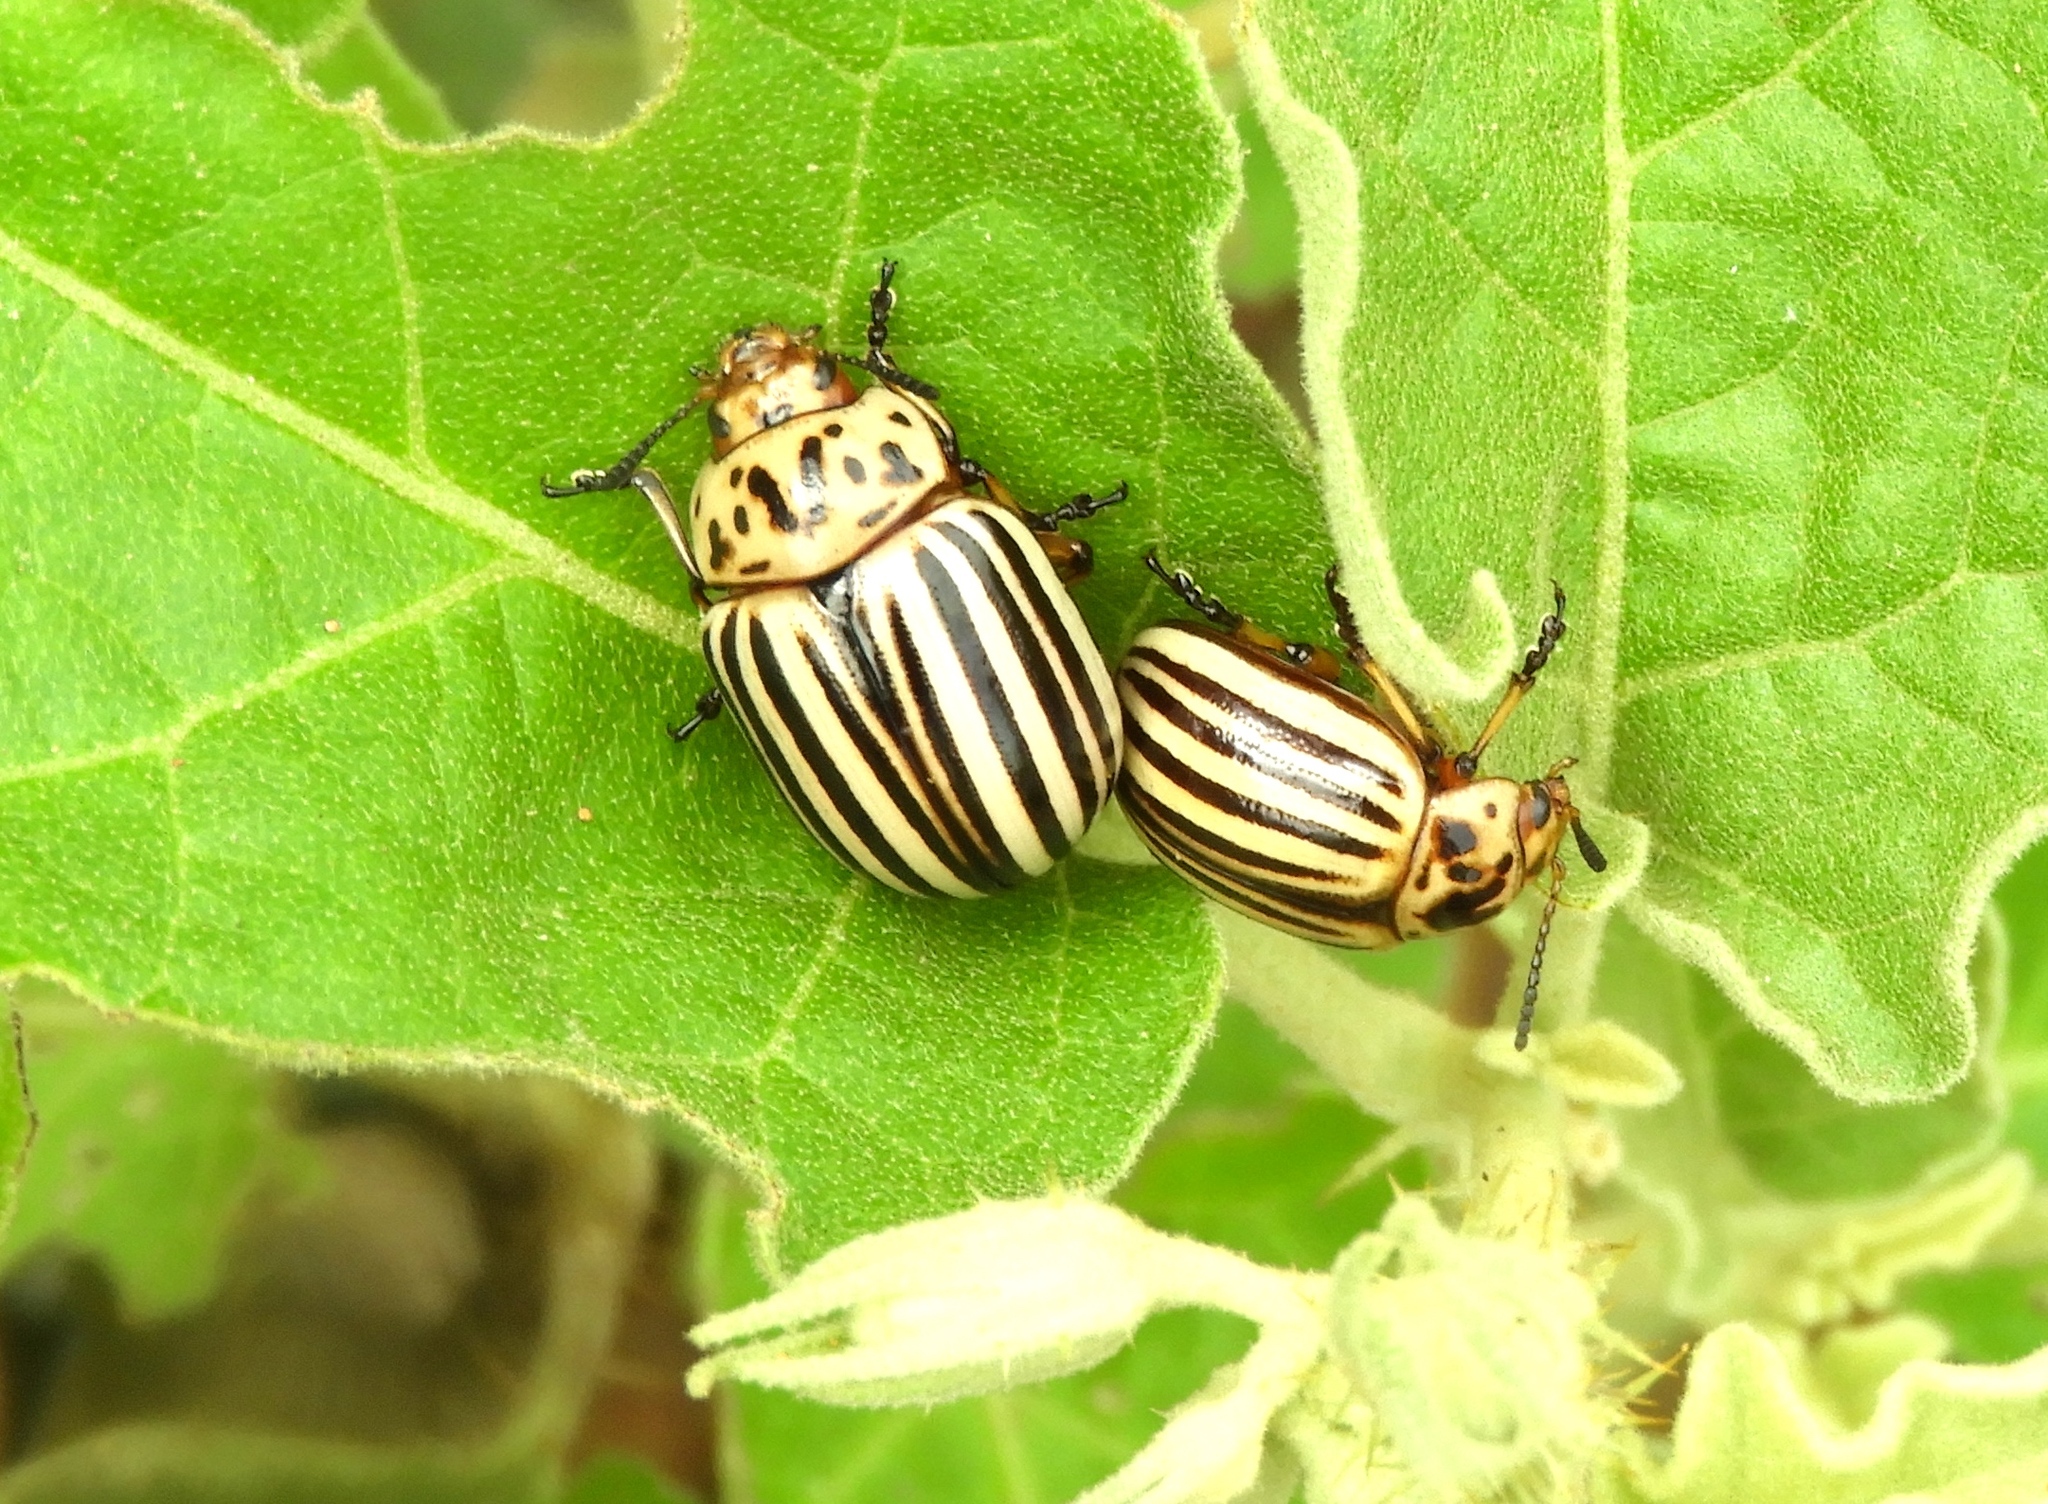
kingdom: Animalia
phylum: Arthropoda
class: Insecta
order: Coleoptera
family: Chrysomelidae
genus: Leptinotarsa
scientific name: Leptinotarsa decemlineata
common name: Colorado potato beetle
